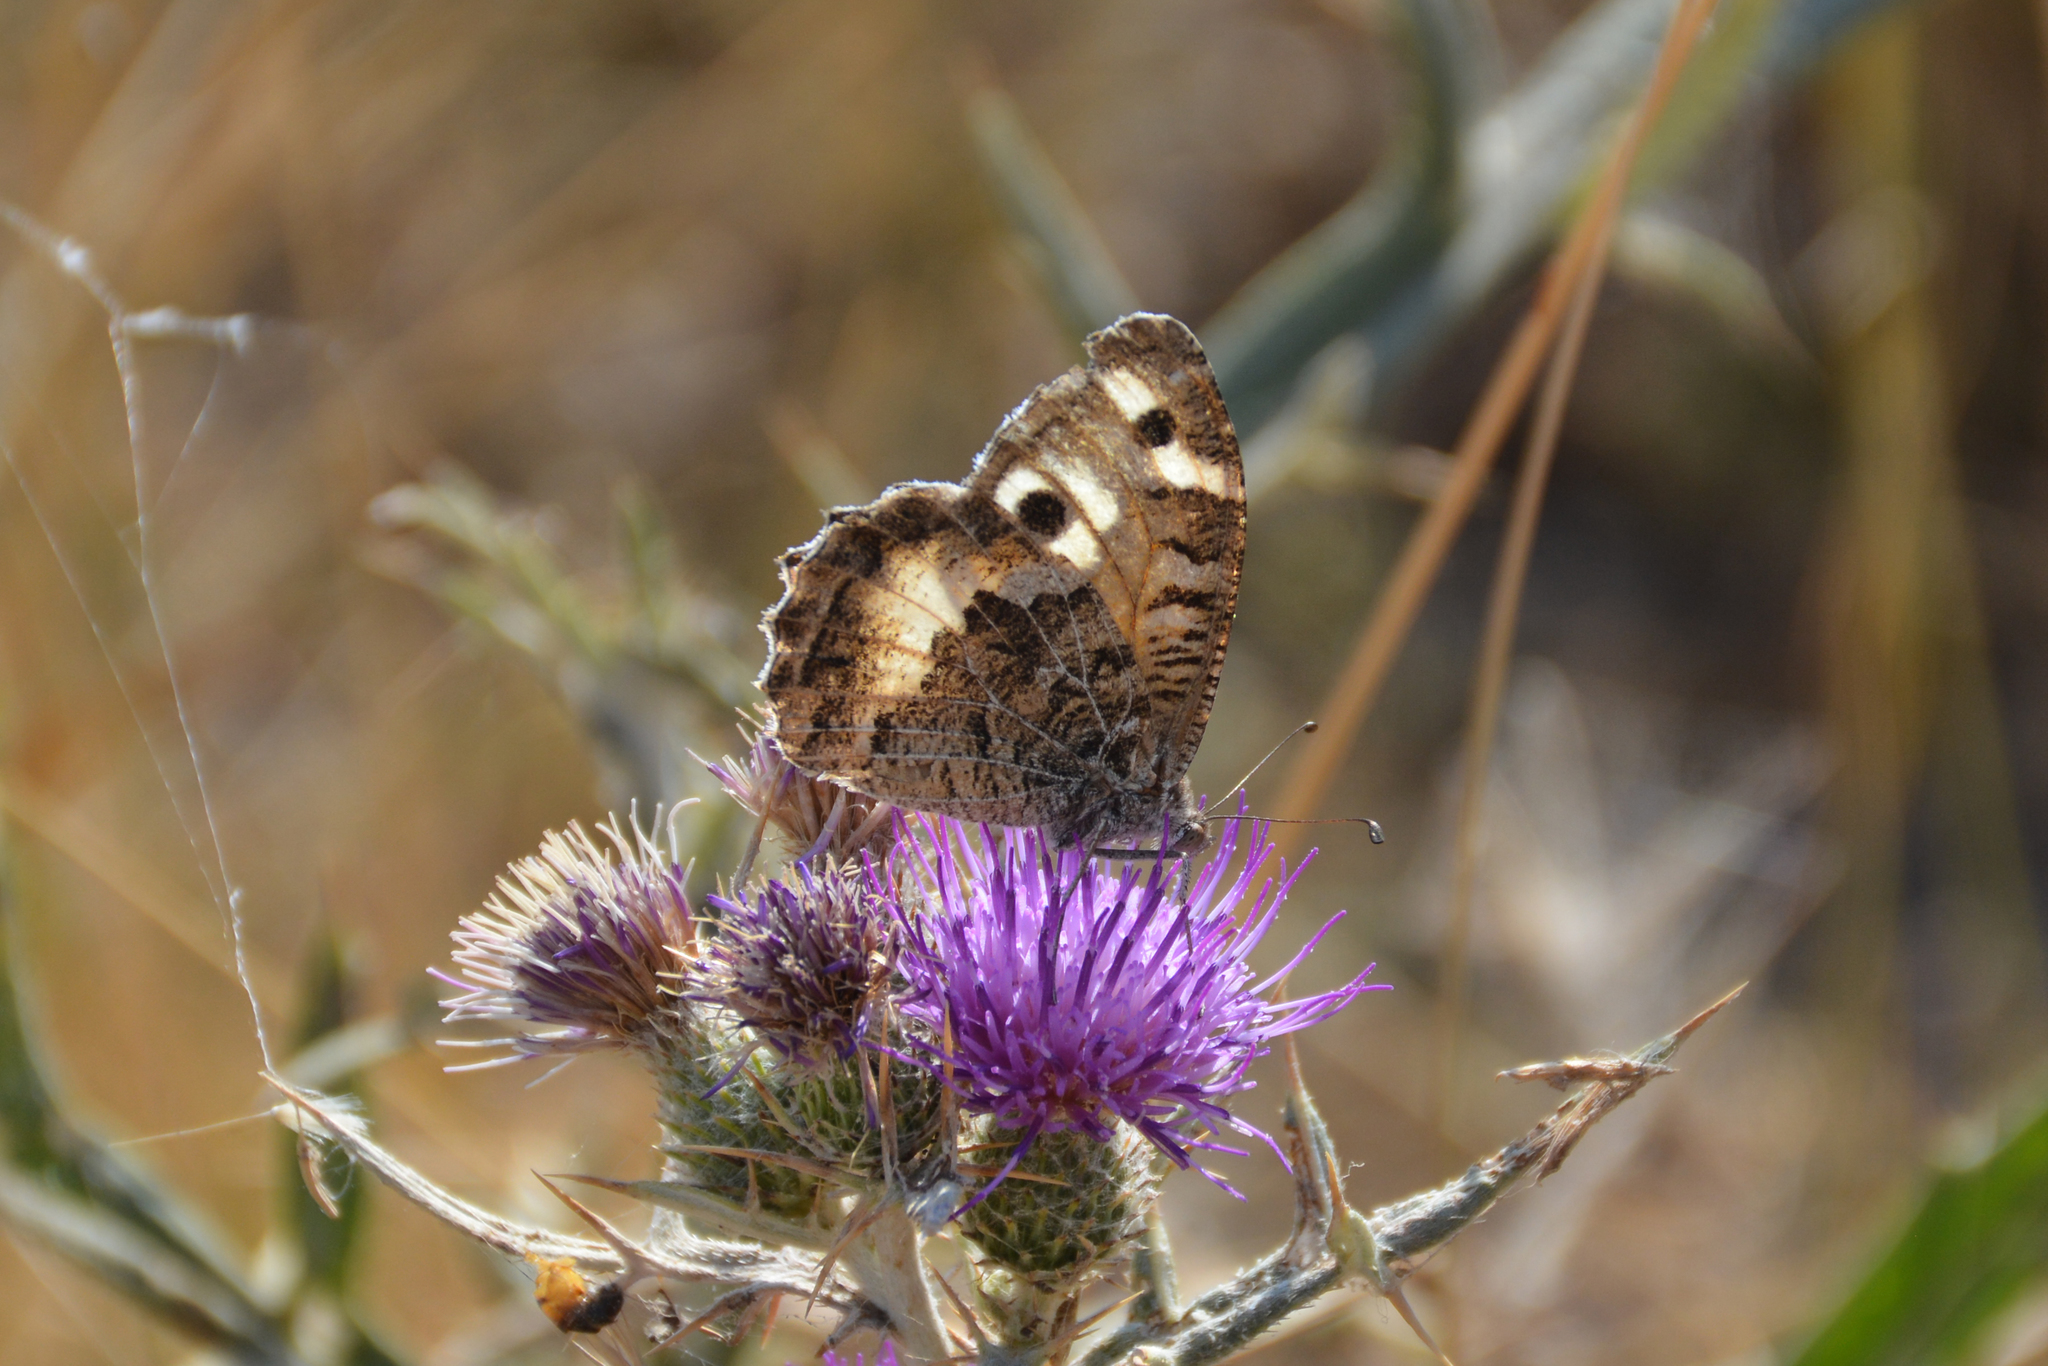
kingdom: Animalia
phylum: Arthropoda
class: Insecta
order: Lepidoptera
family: Nymphalidae
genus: Satyrus
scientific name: Satyrus Chazara persephone
